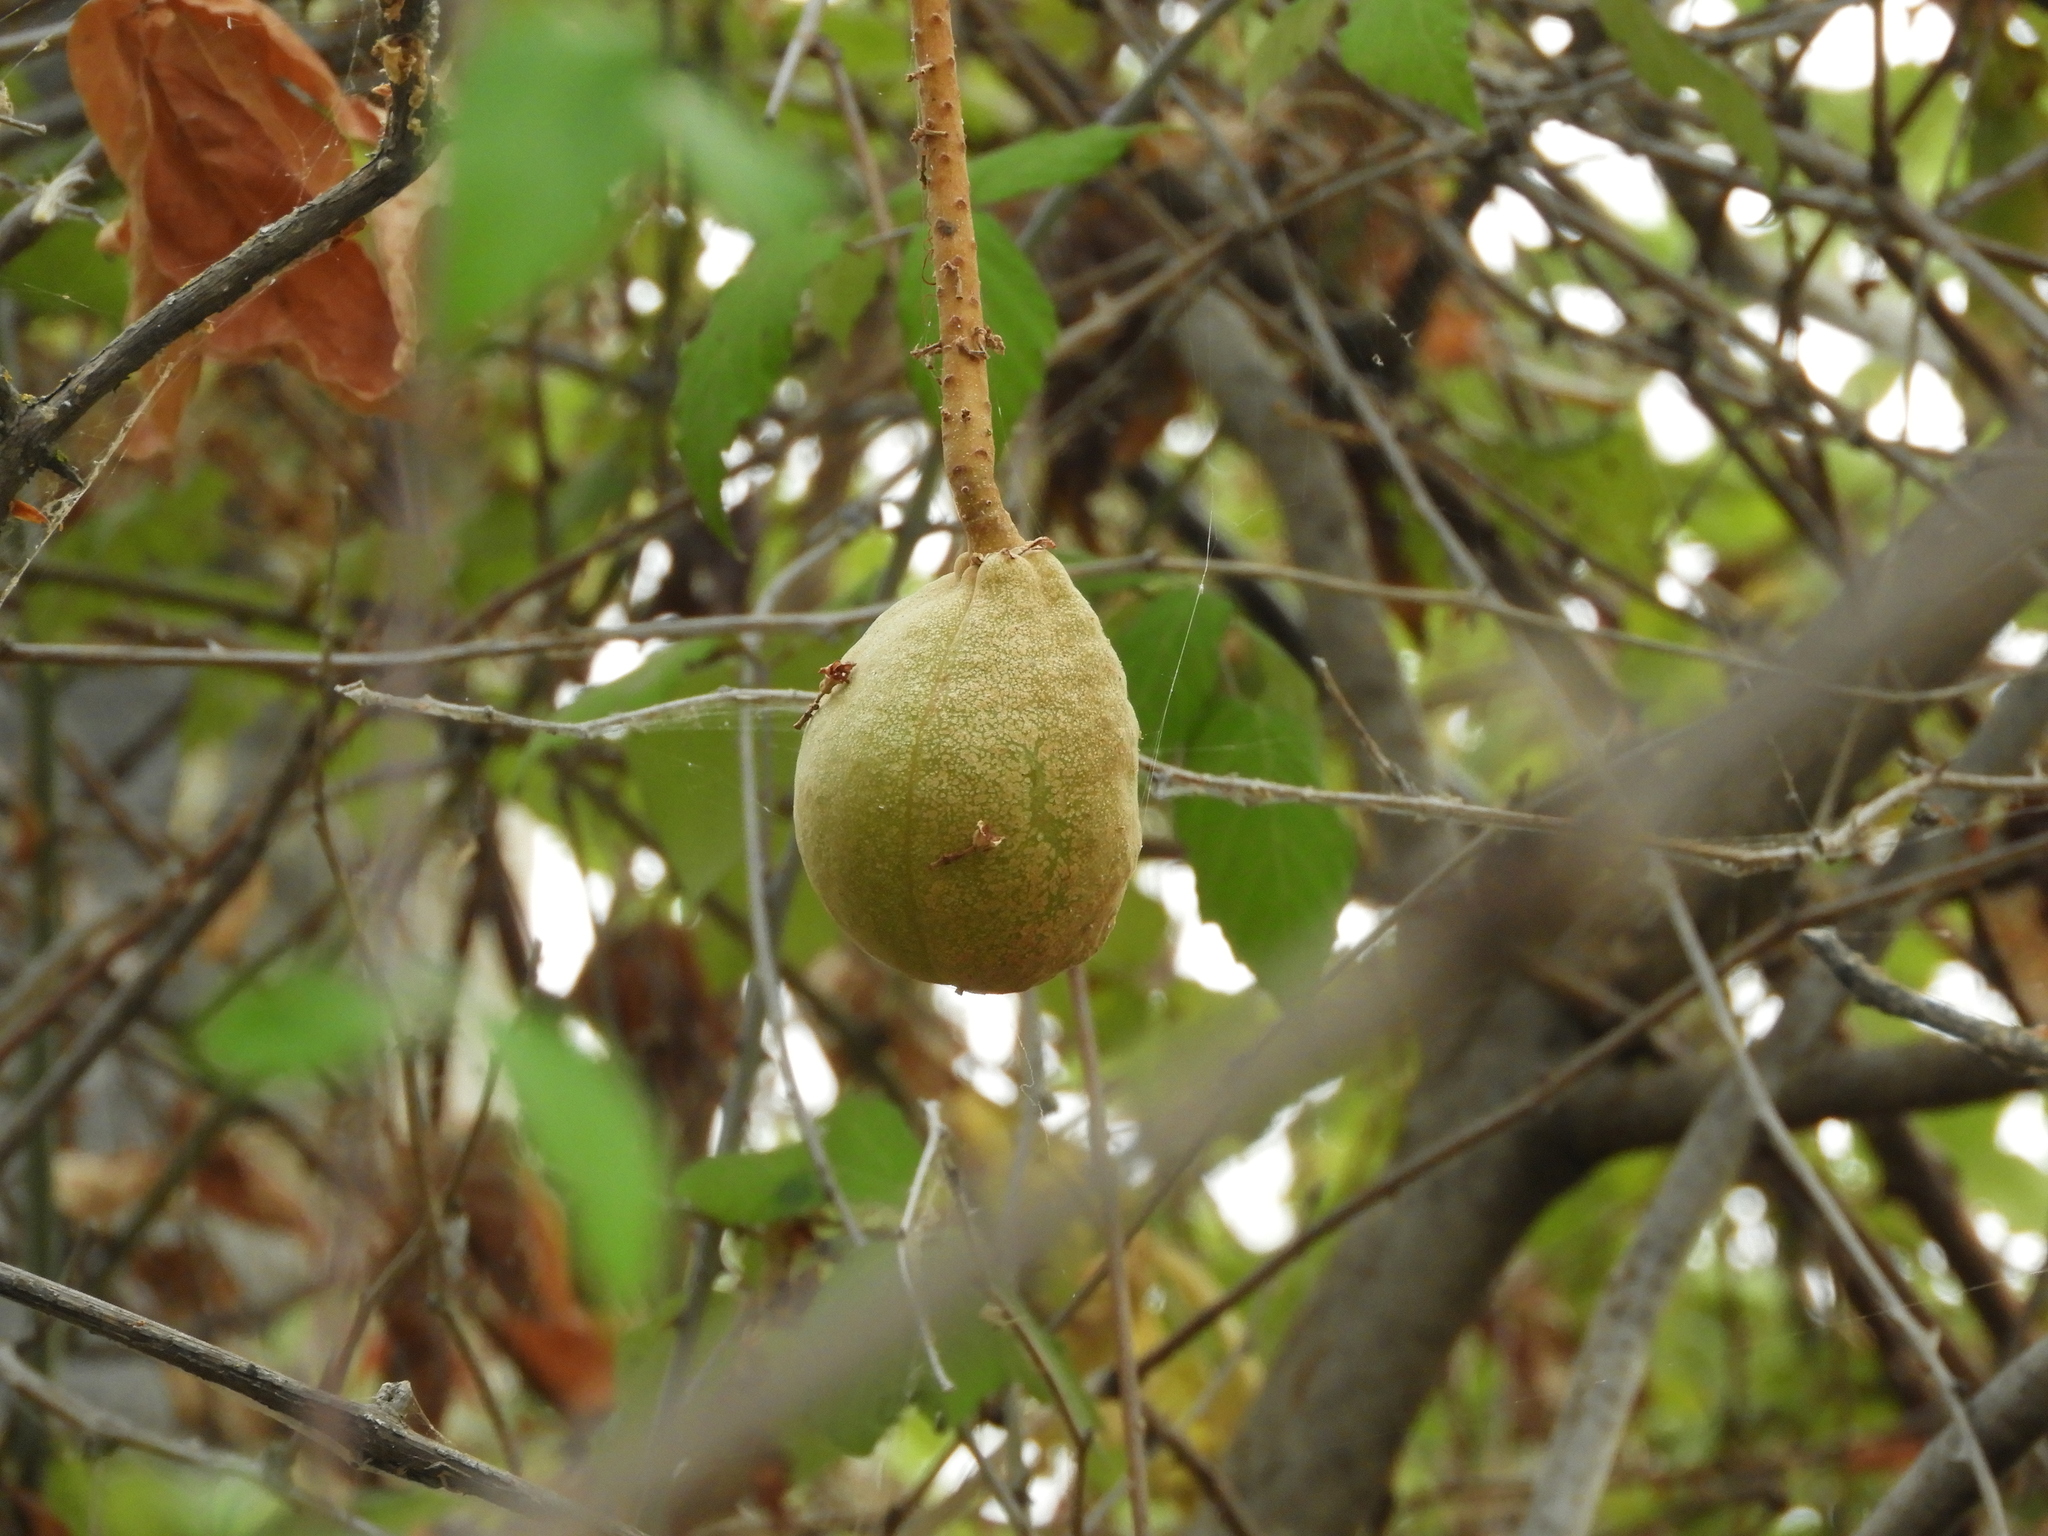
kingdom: Plantae
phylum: Tracheophyta
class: Magnoliopsida
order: Sapindales
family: Sapindaceae
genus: Aesculus
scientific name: Aesculus californica
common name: California buckeye
